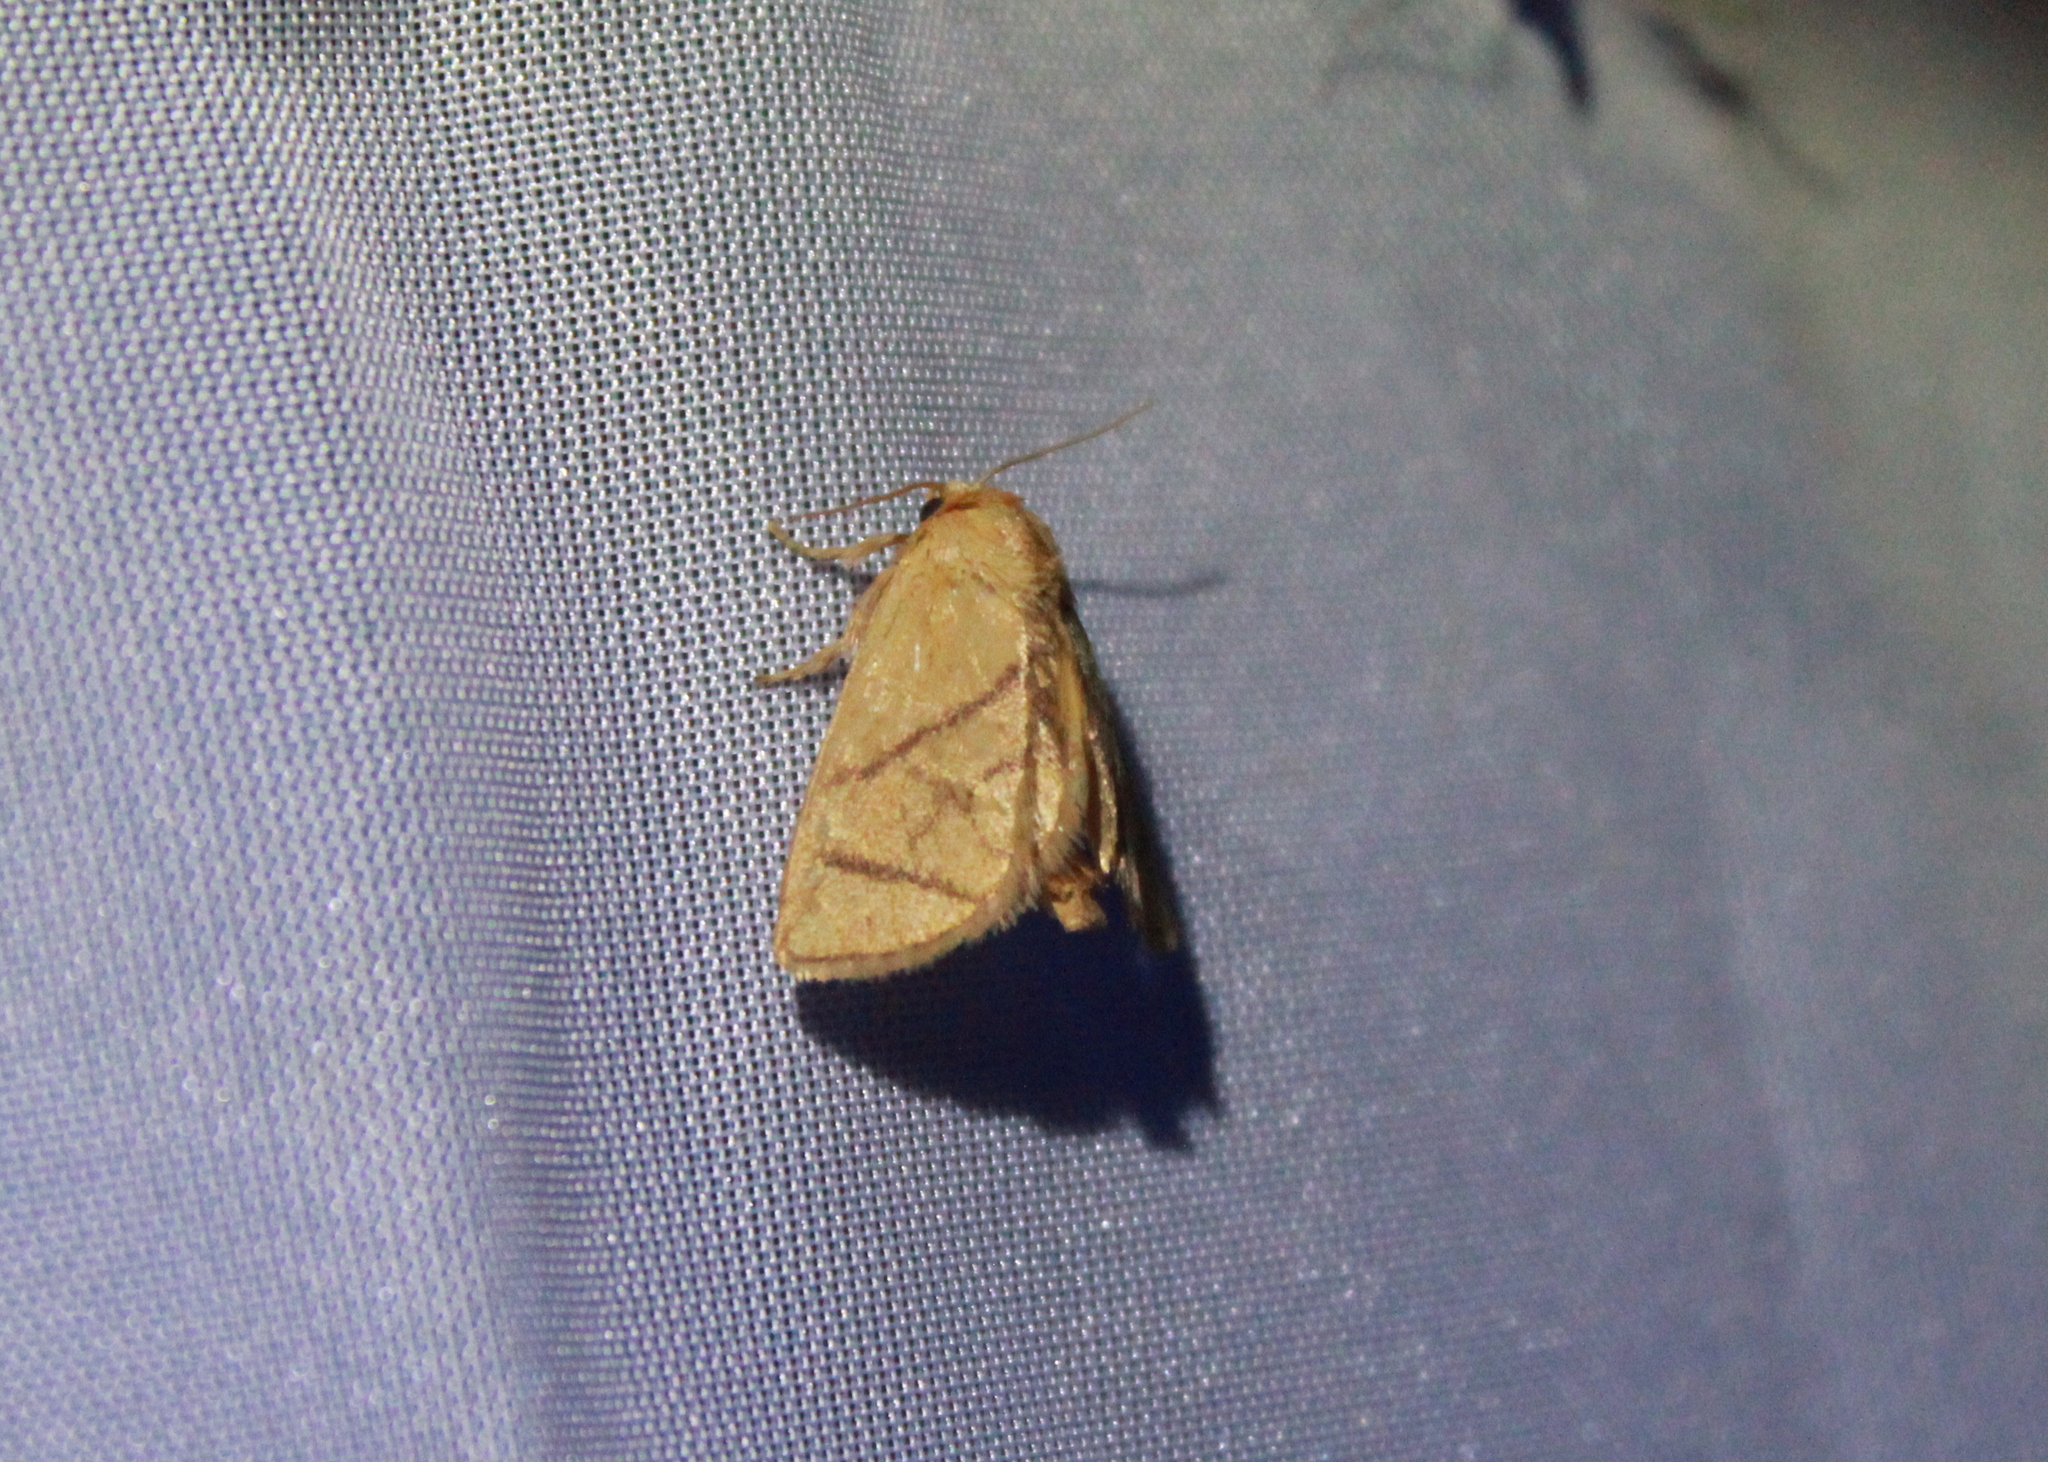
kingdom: Animalia
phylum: Arthropoda
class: Insecta
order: Lepidoptera
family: Limacodidae
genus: Apoda
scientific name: Apoda y-inversa
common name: Yellow-collared slug moth
